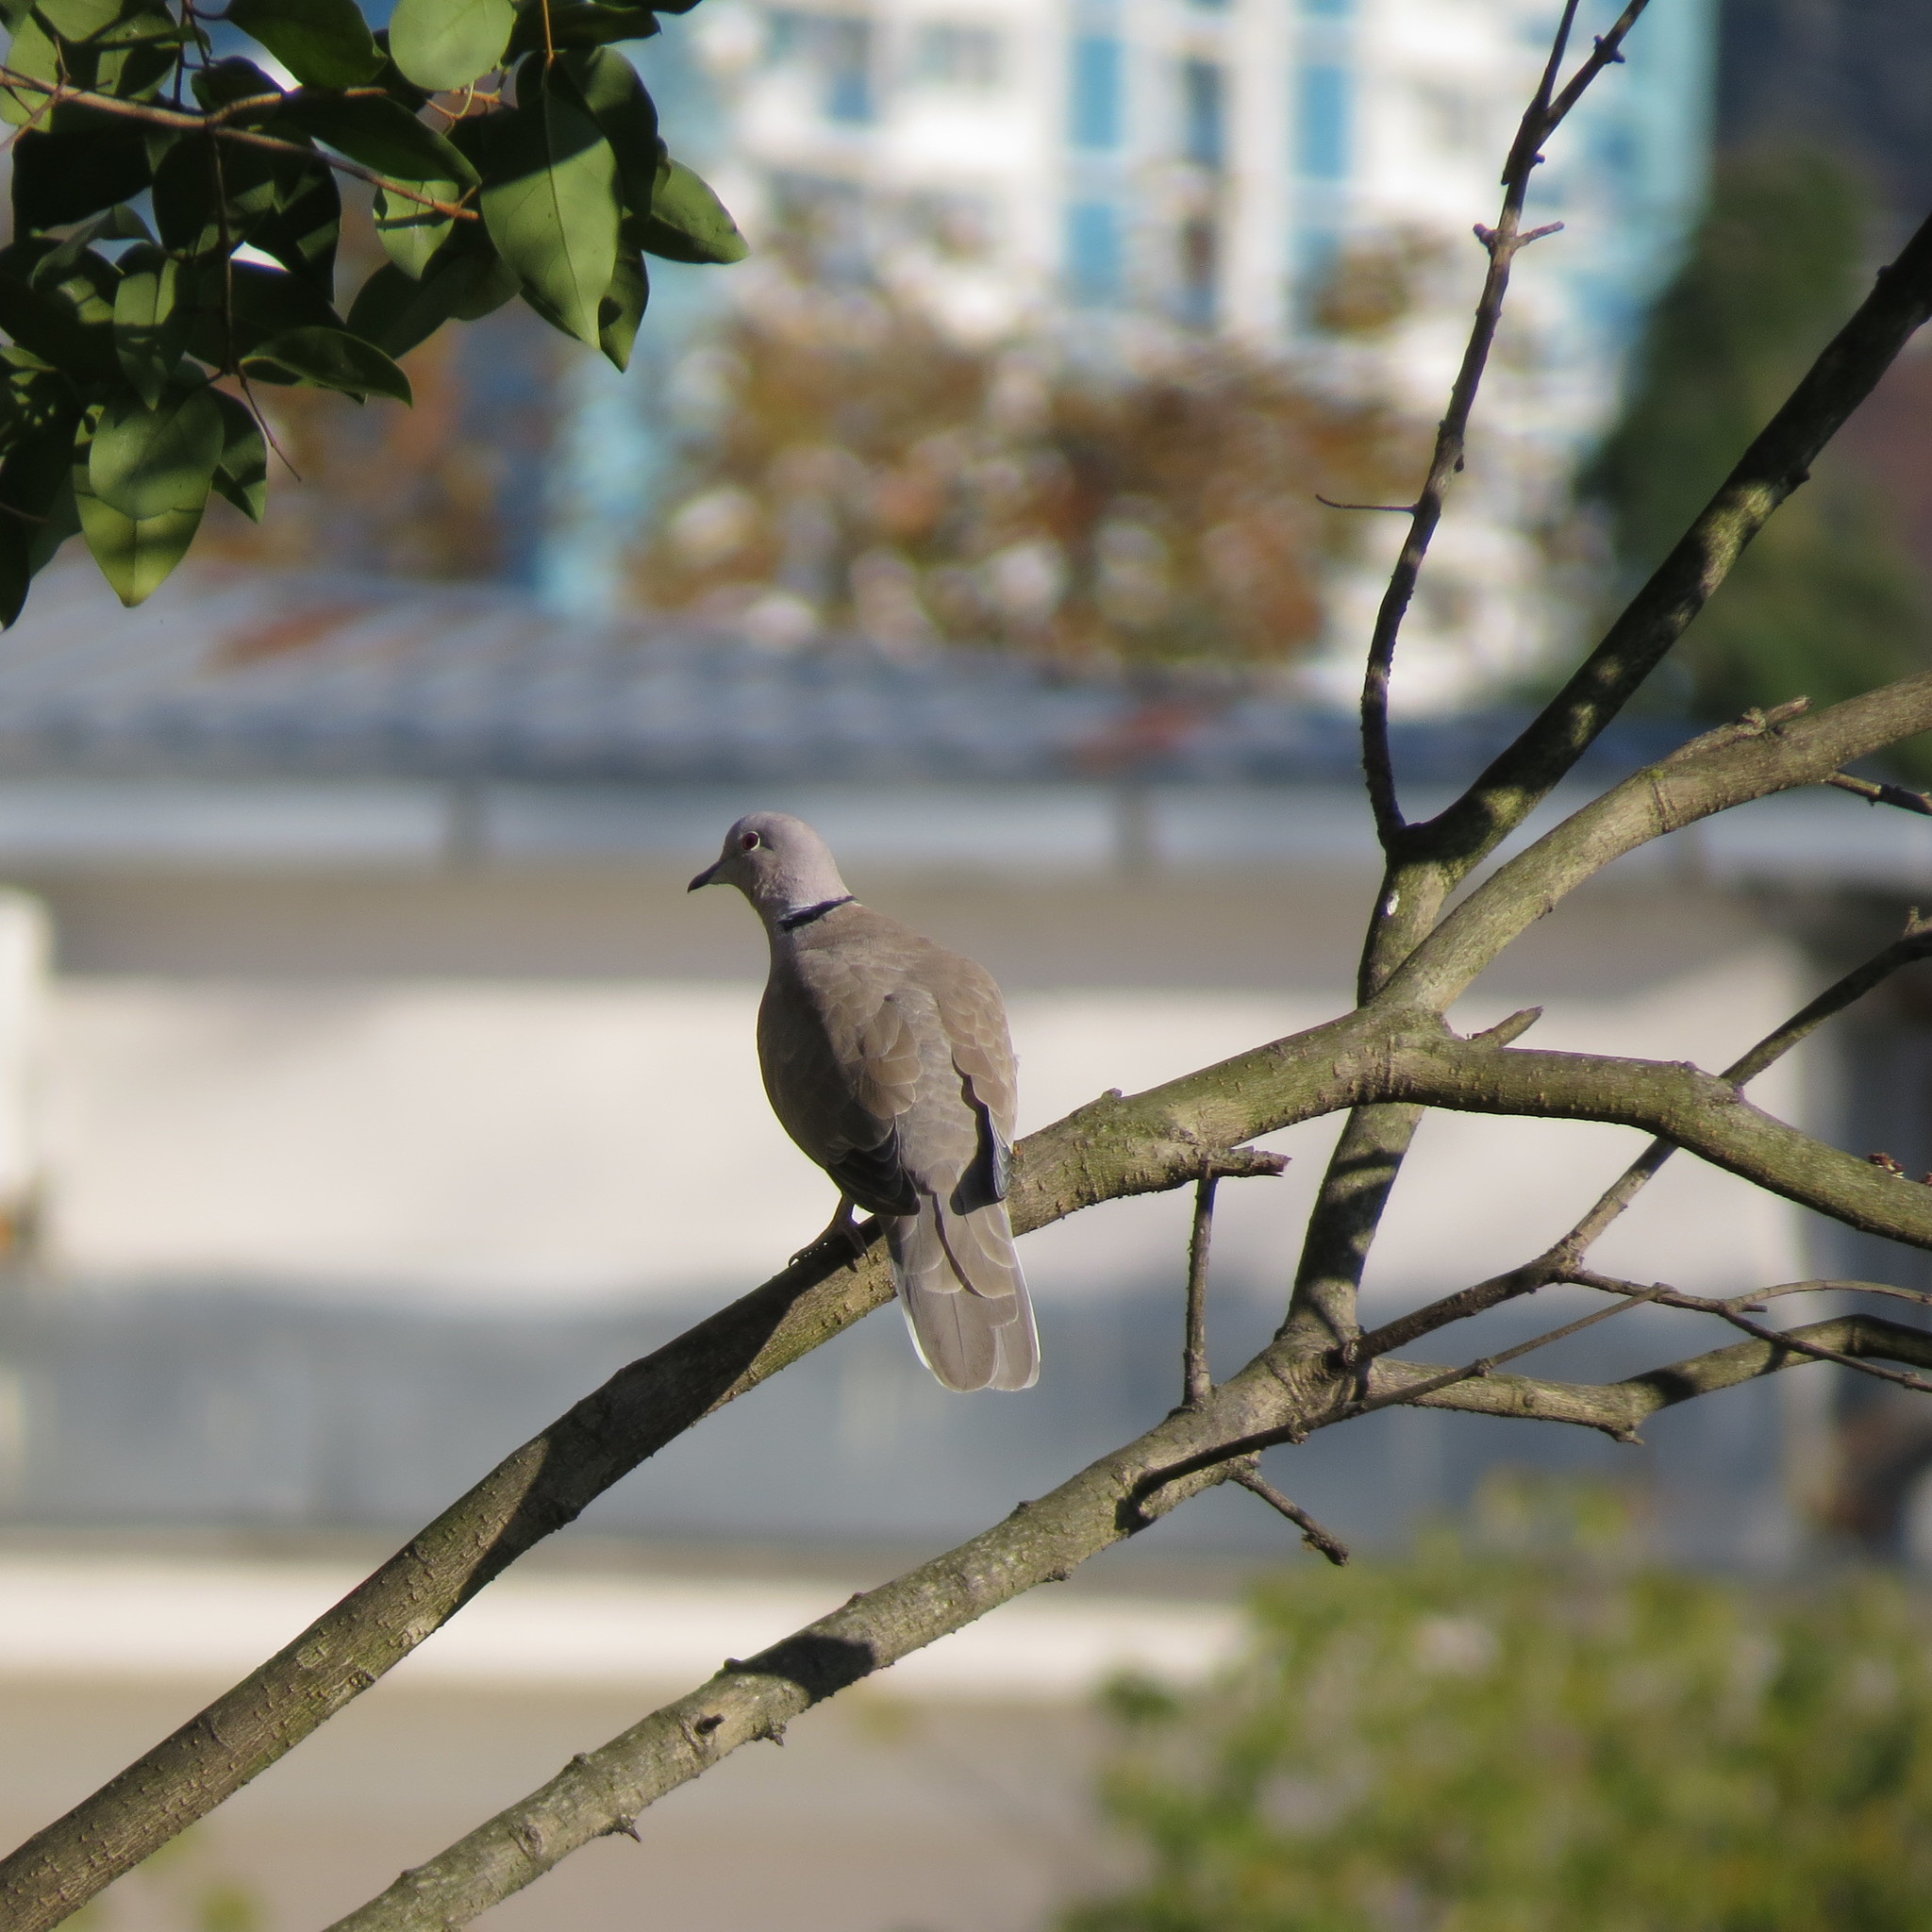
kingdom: Animalia
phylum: Chordata
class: Aves
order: Columbiformes
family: Columbidae
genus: Streptopelia
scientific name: Streptopelia decaocto
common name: Eurasian collared dove
